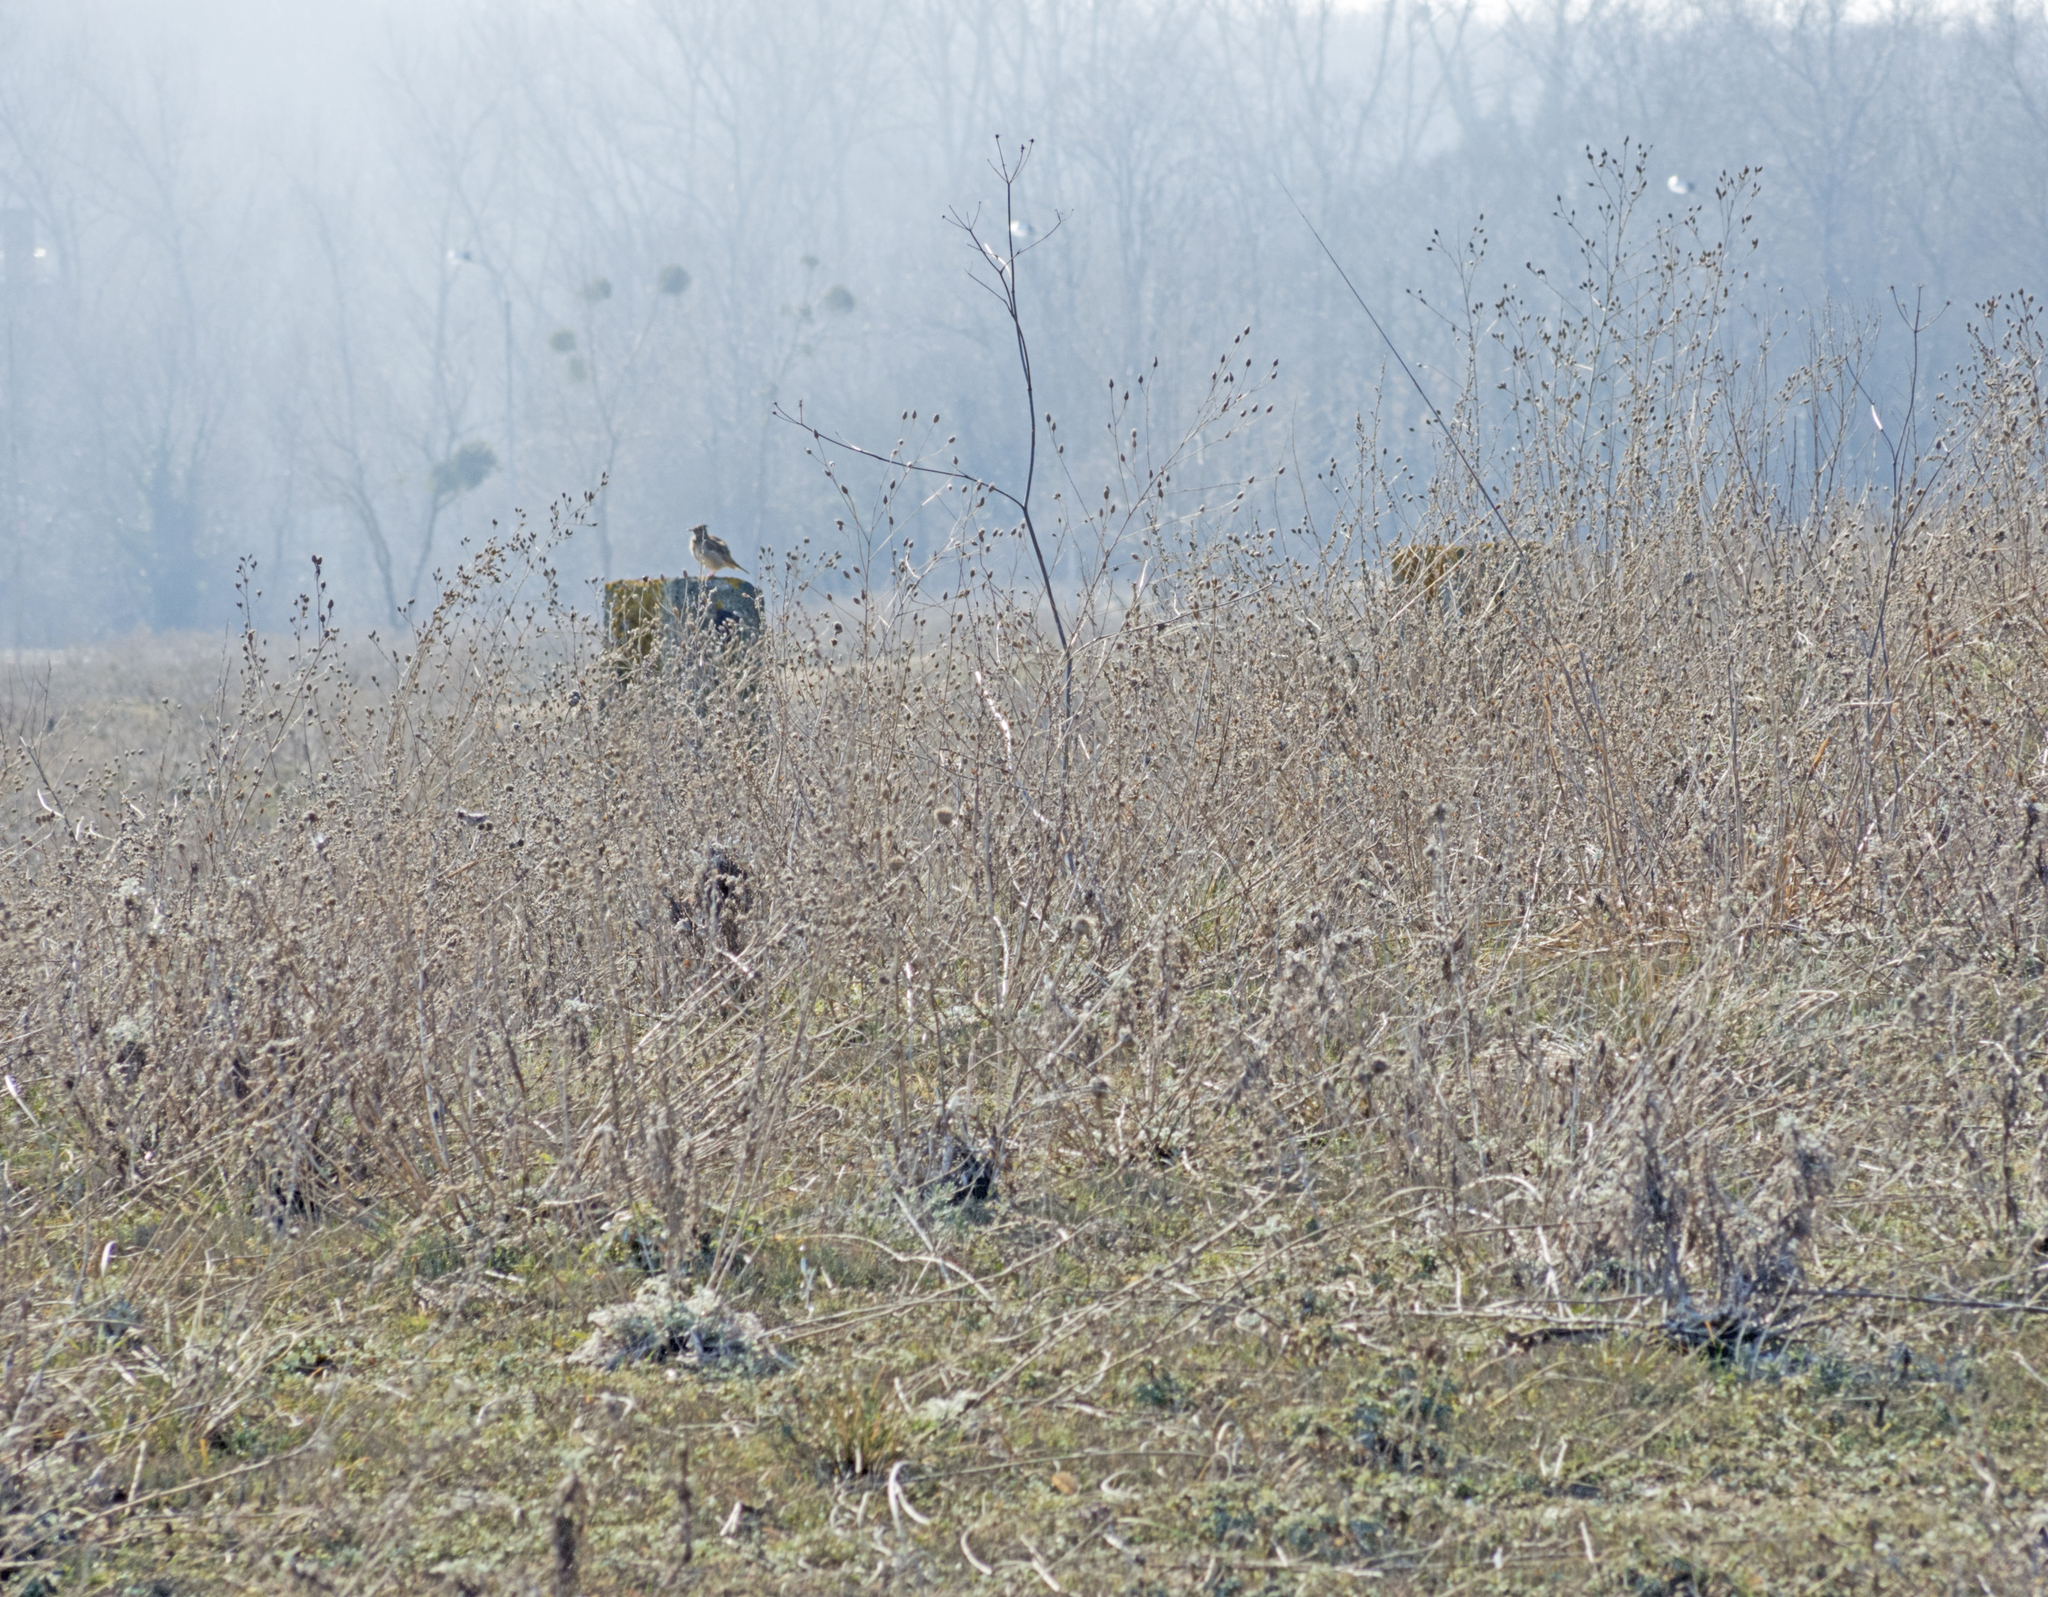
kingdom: Animalia
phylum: Chordata
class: Aves
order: Passeriformes
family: Alaudidae
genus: Galerida
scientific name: Galerida cristata
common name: Crested lark
